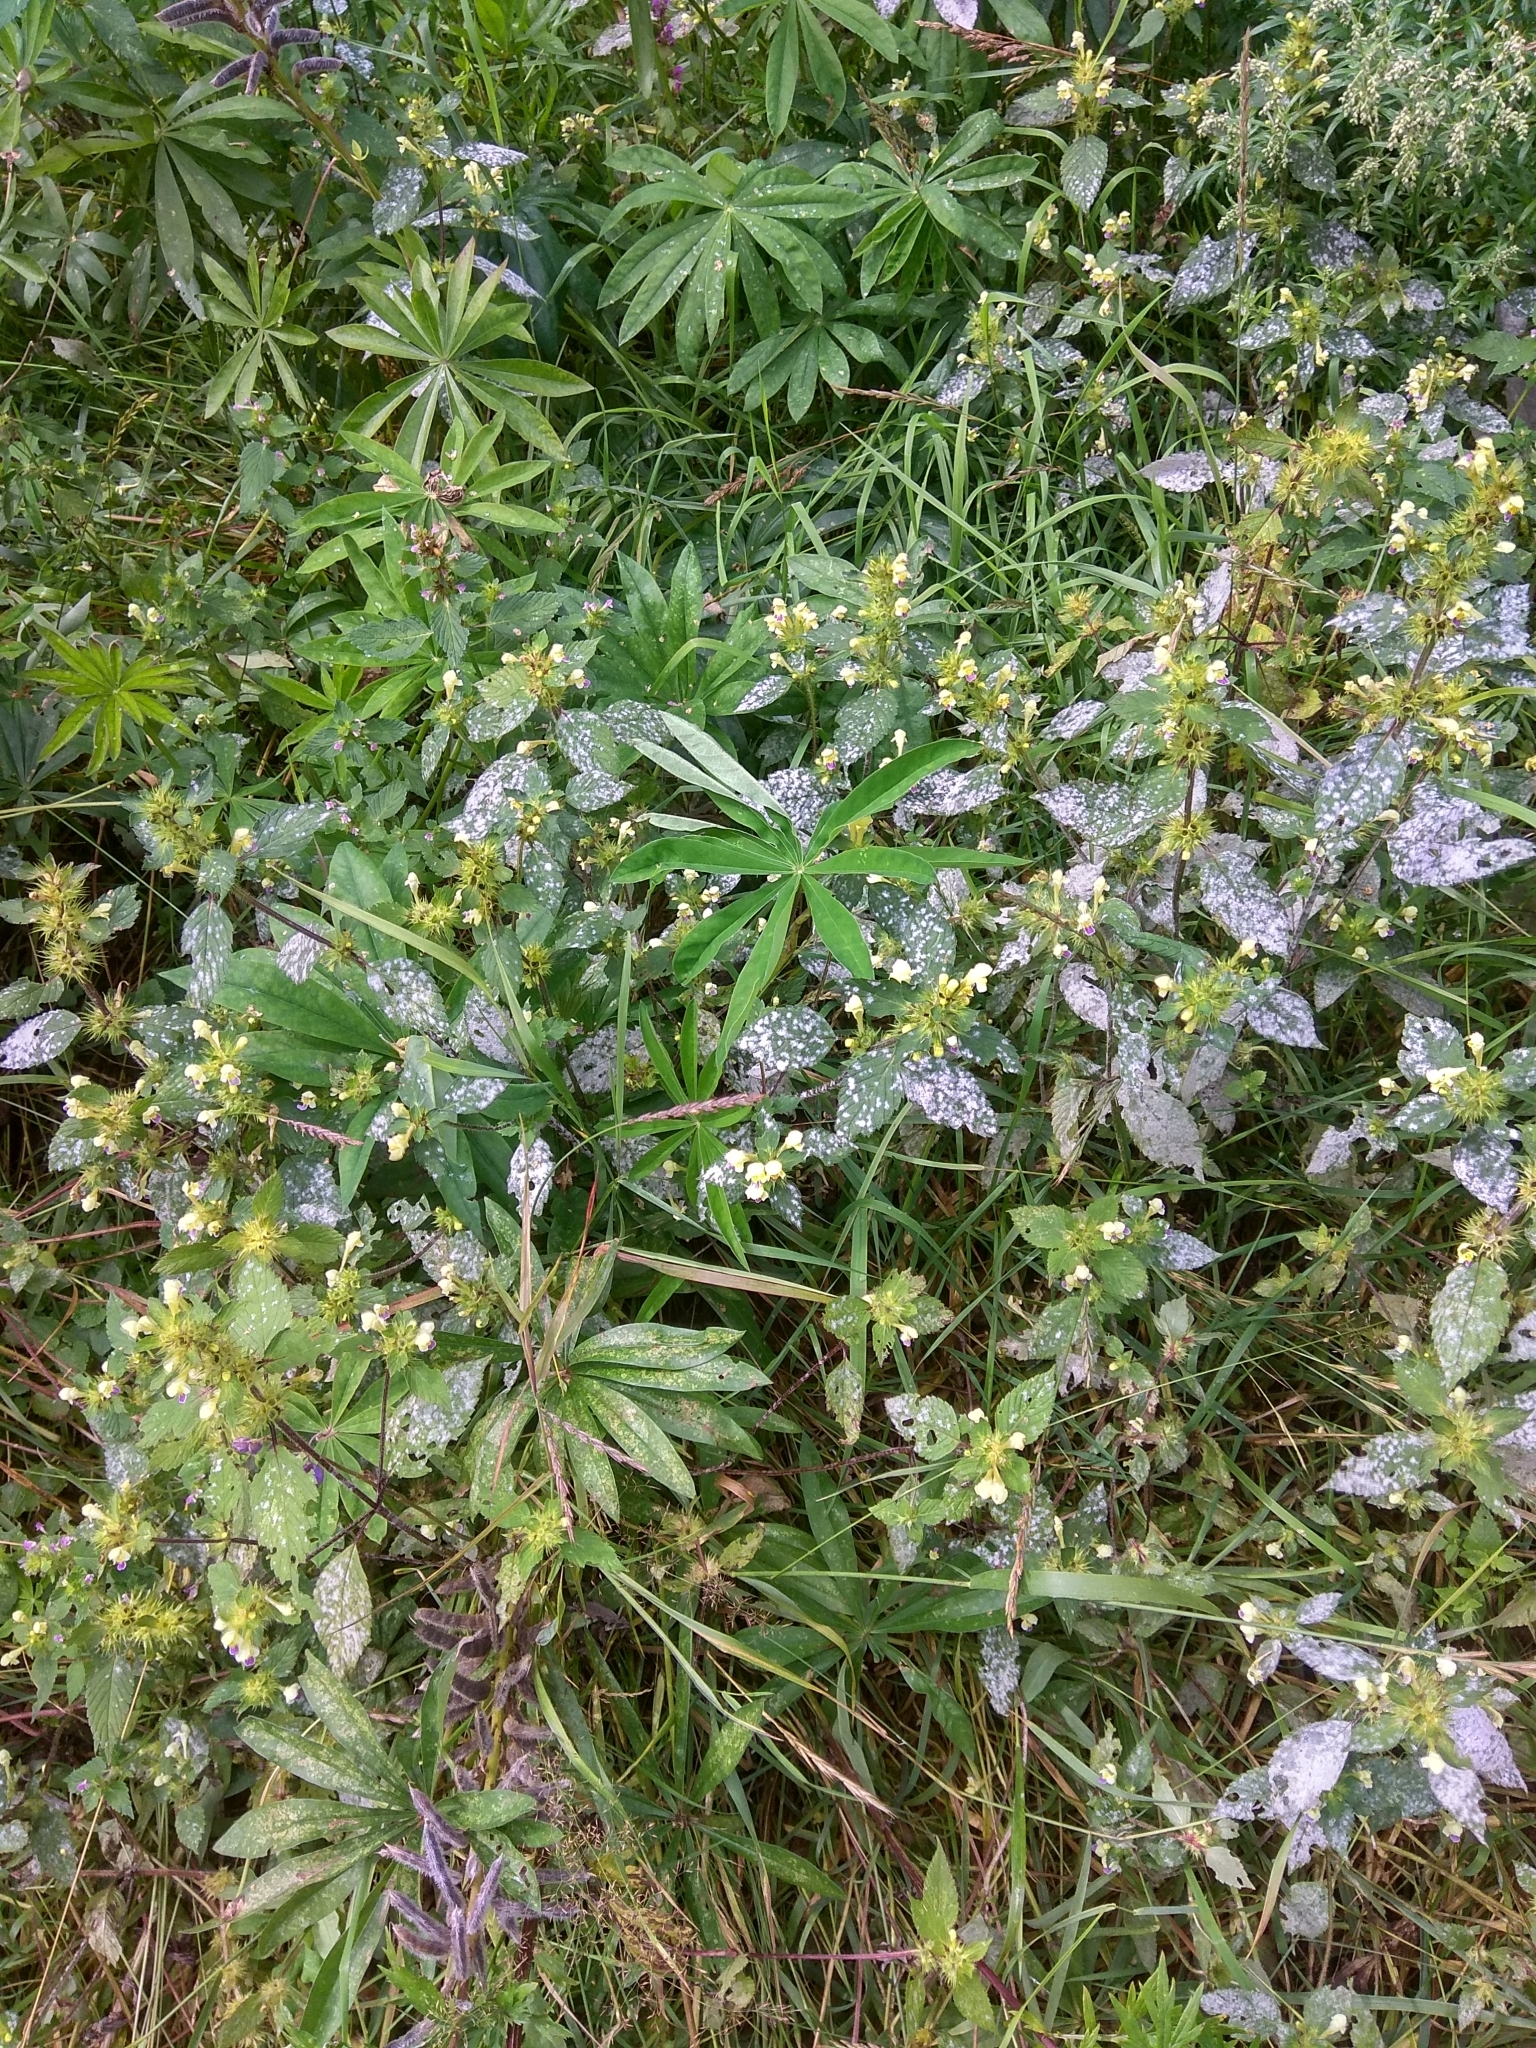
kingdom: Plantae
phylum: Tracheophyta
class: Magnoliopsida
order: Lamiales
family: Lamiaceae
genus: Galeopsis
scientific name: Galeopsis speciosa
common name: Large-flowered hemp-nettle
